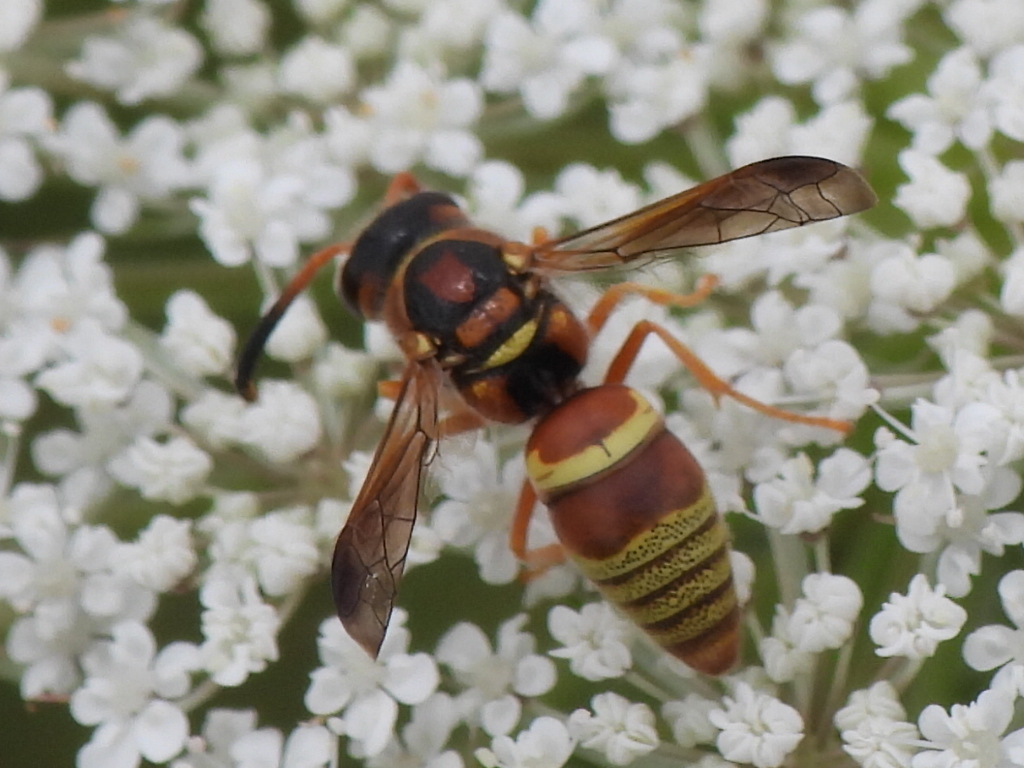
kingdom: Animalia
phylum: Arthropoda
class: Insecta
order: Hymenoptera
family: Eumenidae
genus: Euodynerus
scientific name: Euodynerus pratensis
